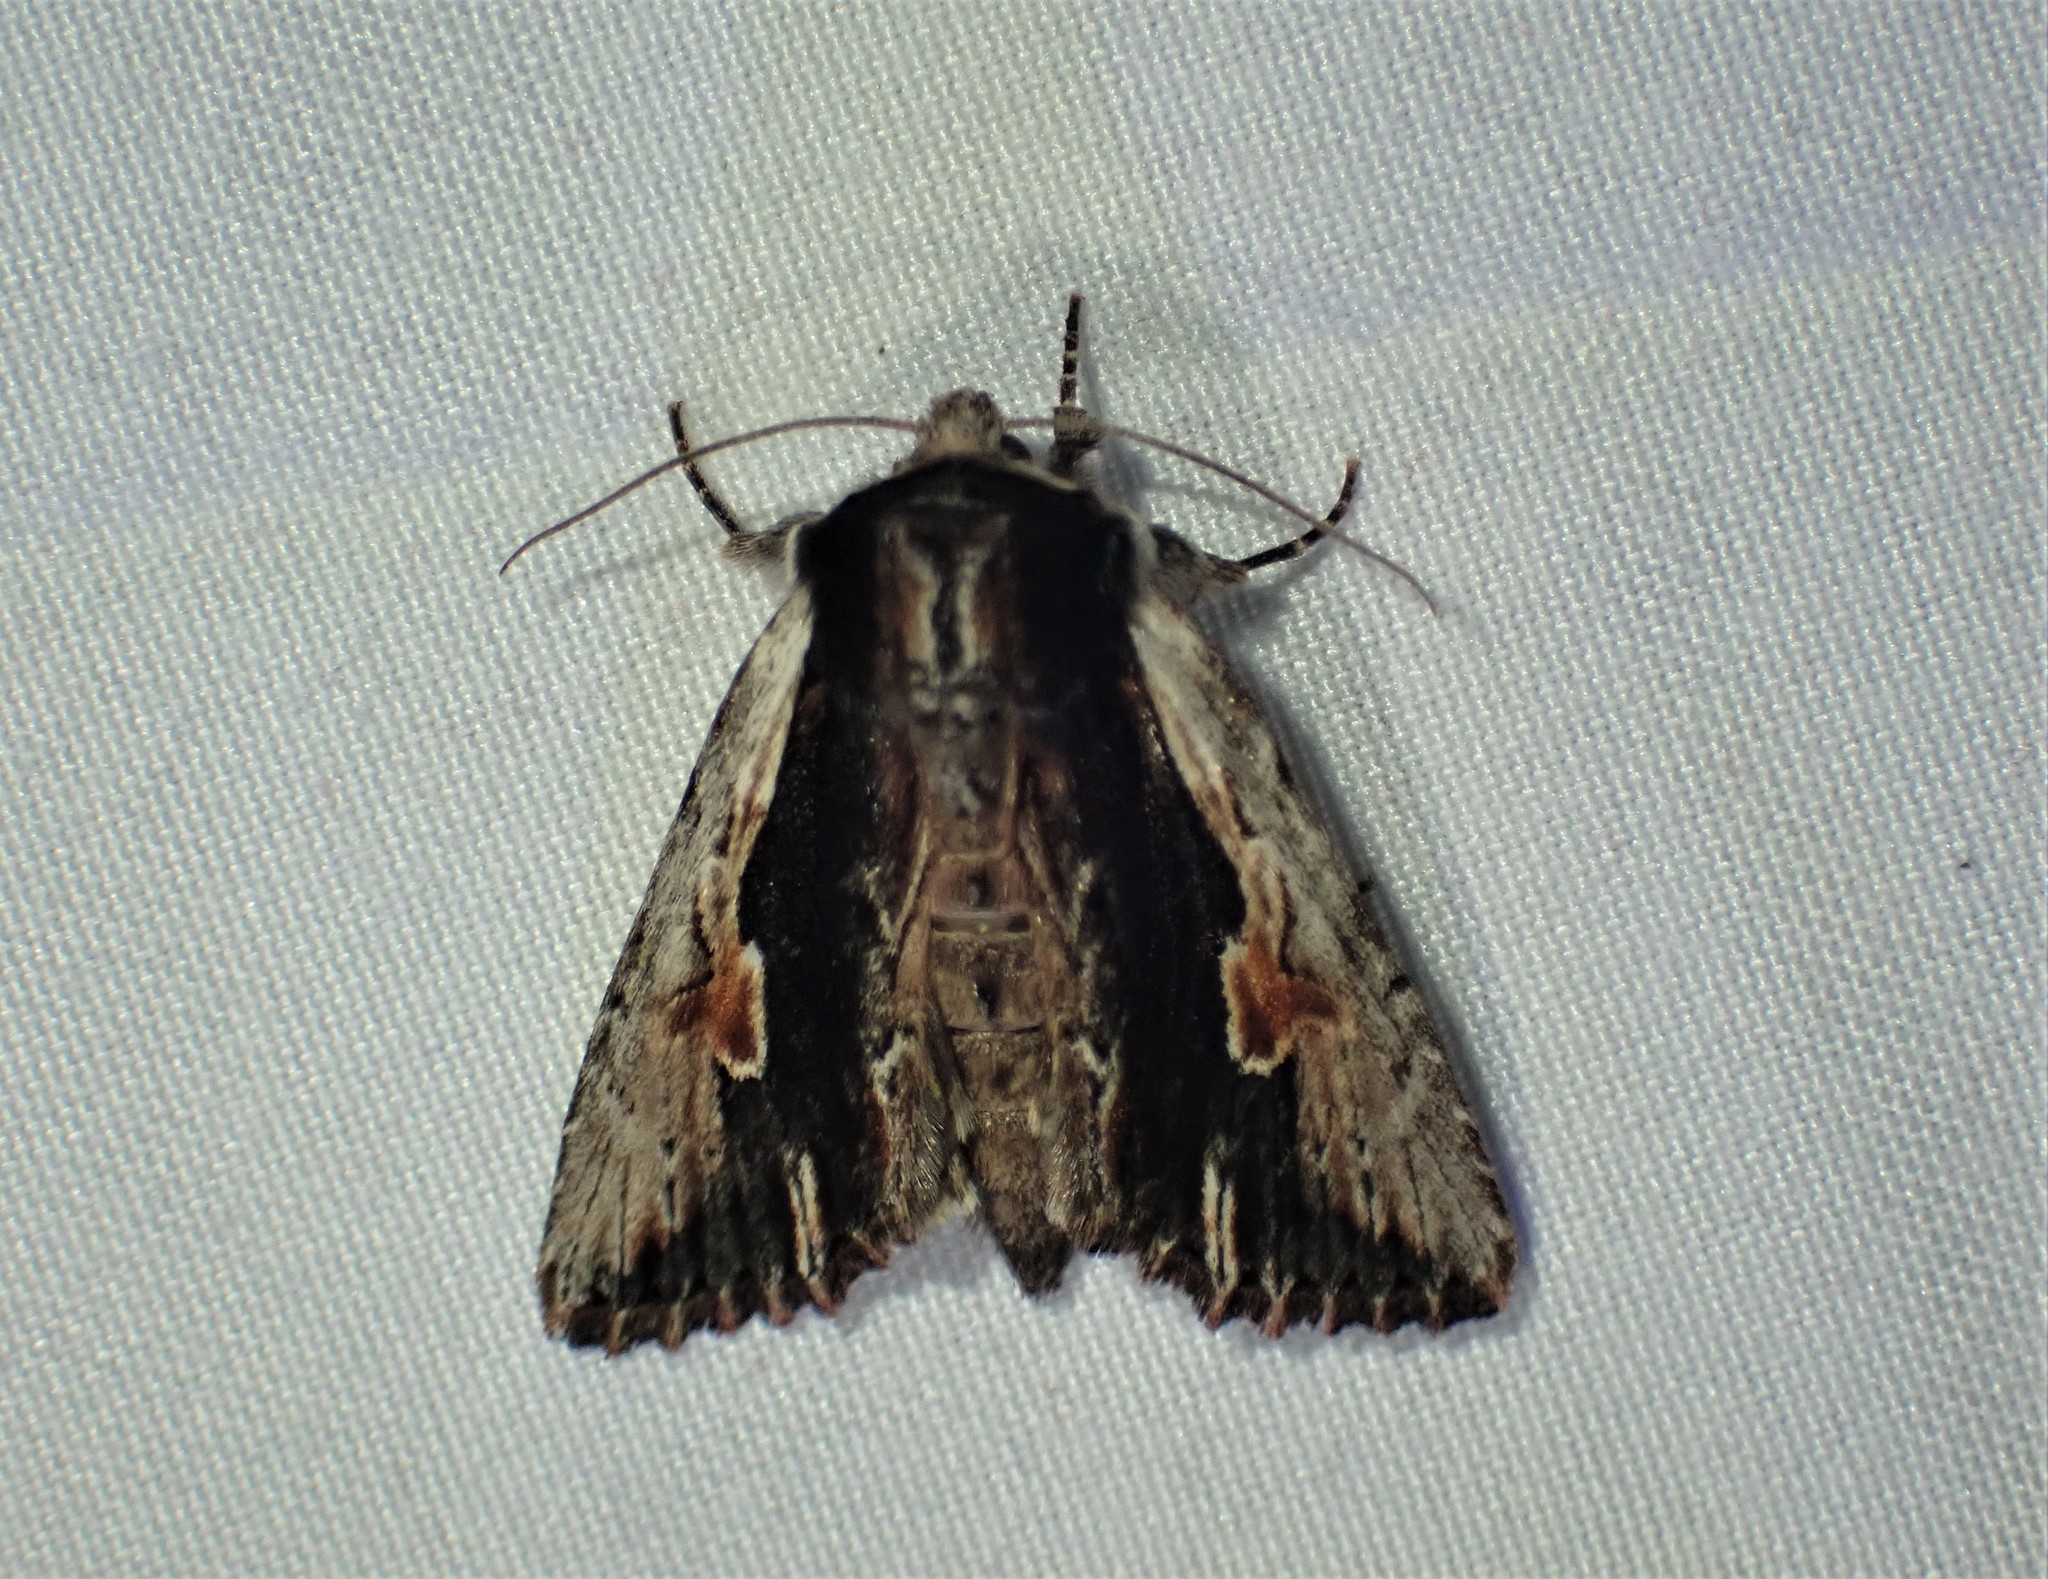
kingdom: Animalia
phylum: Arthropoda
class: Insecta
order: Lepidoptera
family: Noctuidae
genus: Achatia
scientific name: Achatia evicta
